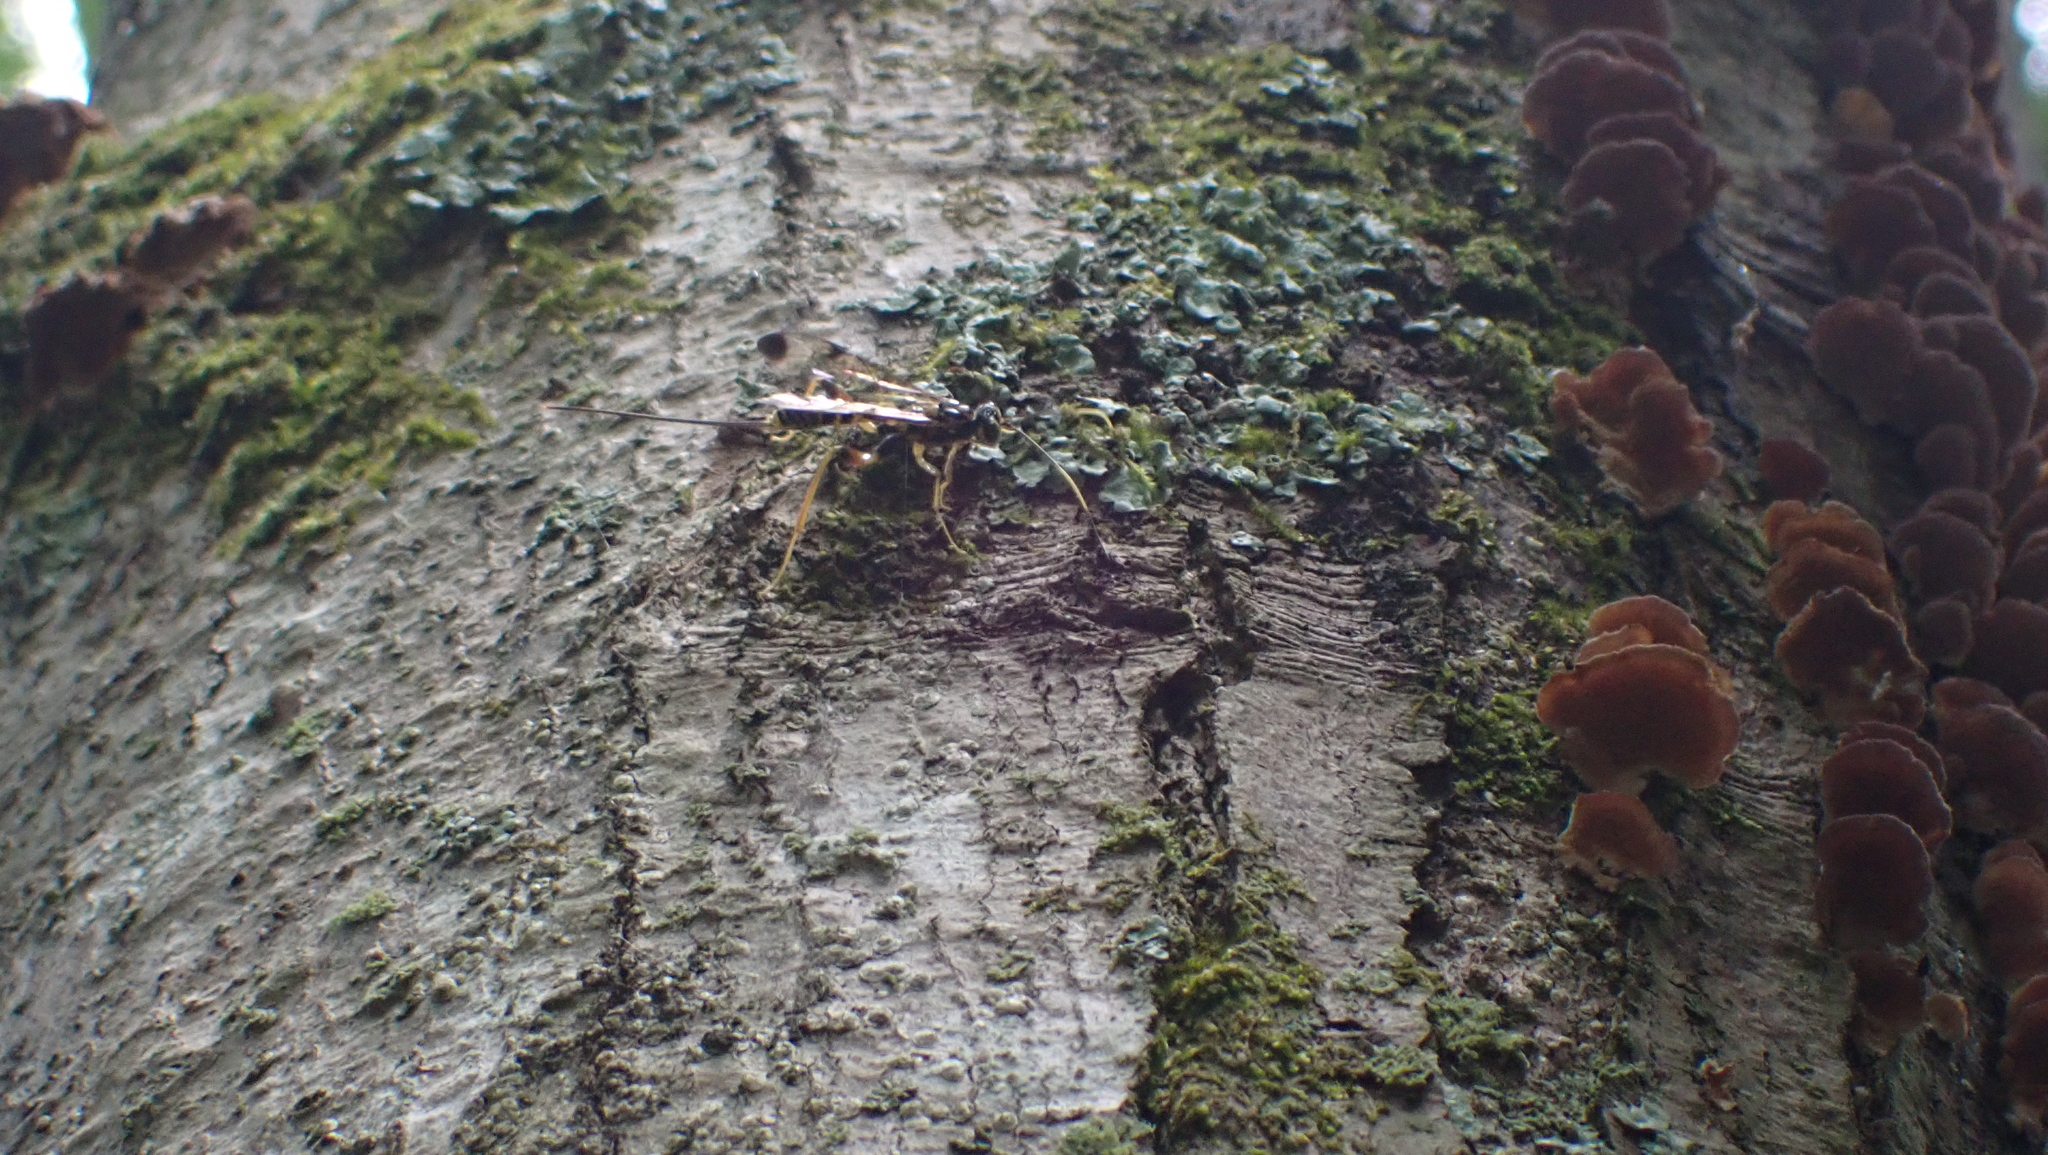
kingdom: Animalia
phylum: Arthropoda
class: Insecta
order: Hymenoptera
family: Ichneumonidae
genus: Spilopteron
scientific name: Spilopteron occiputale
